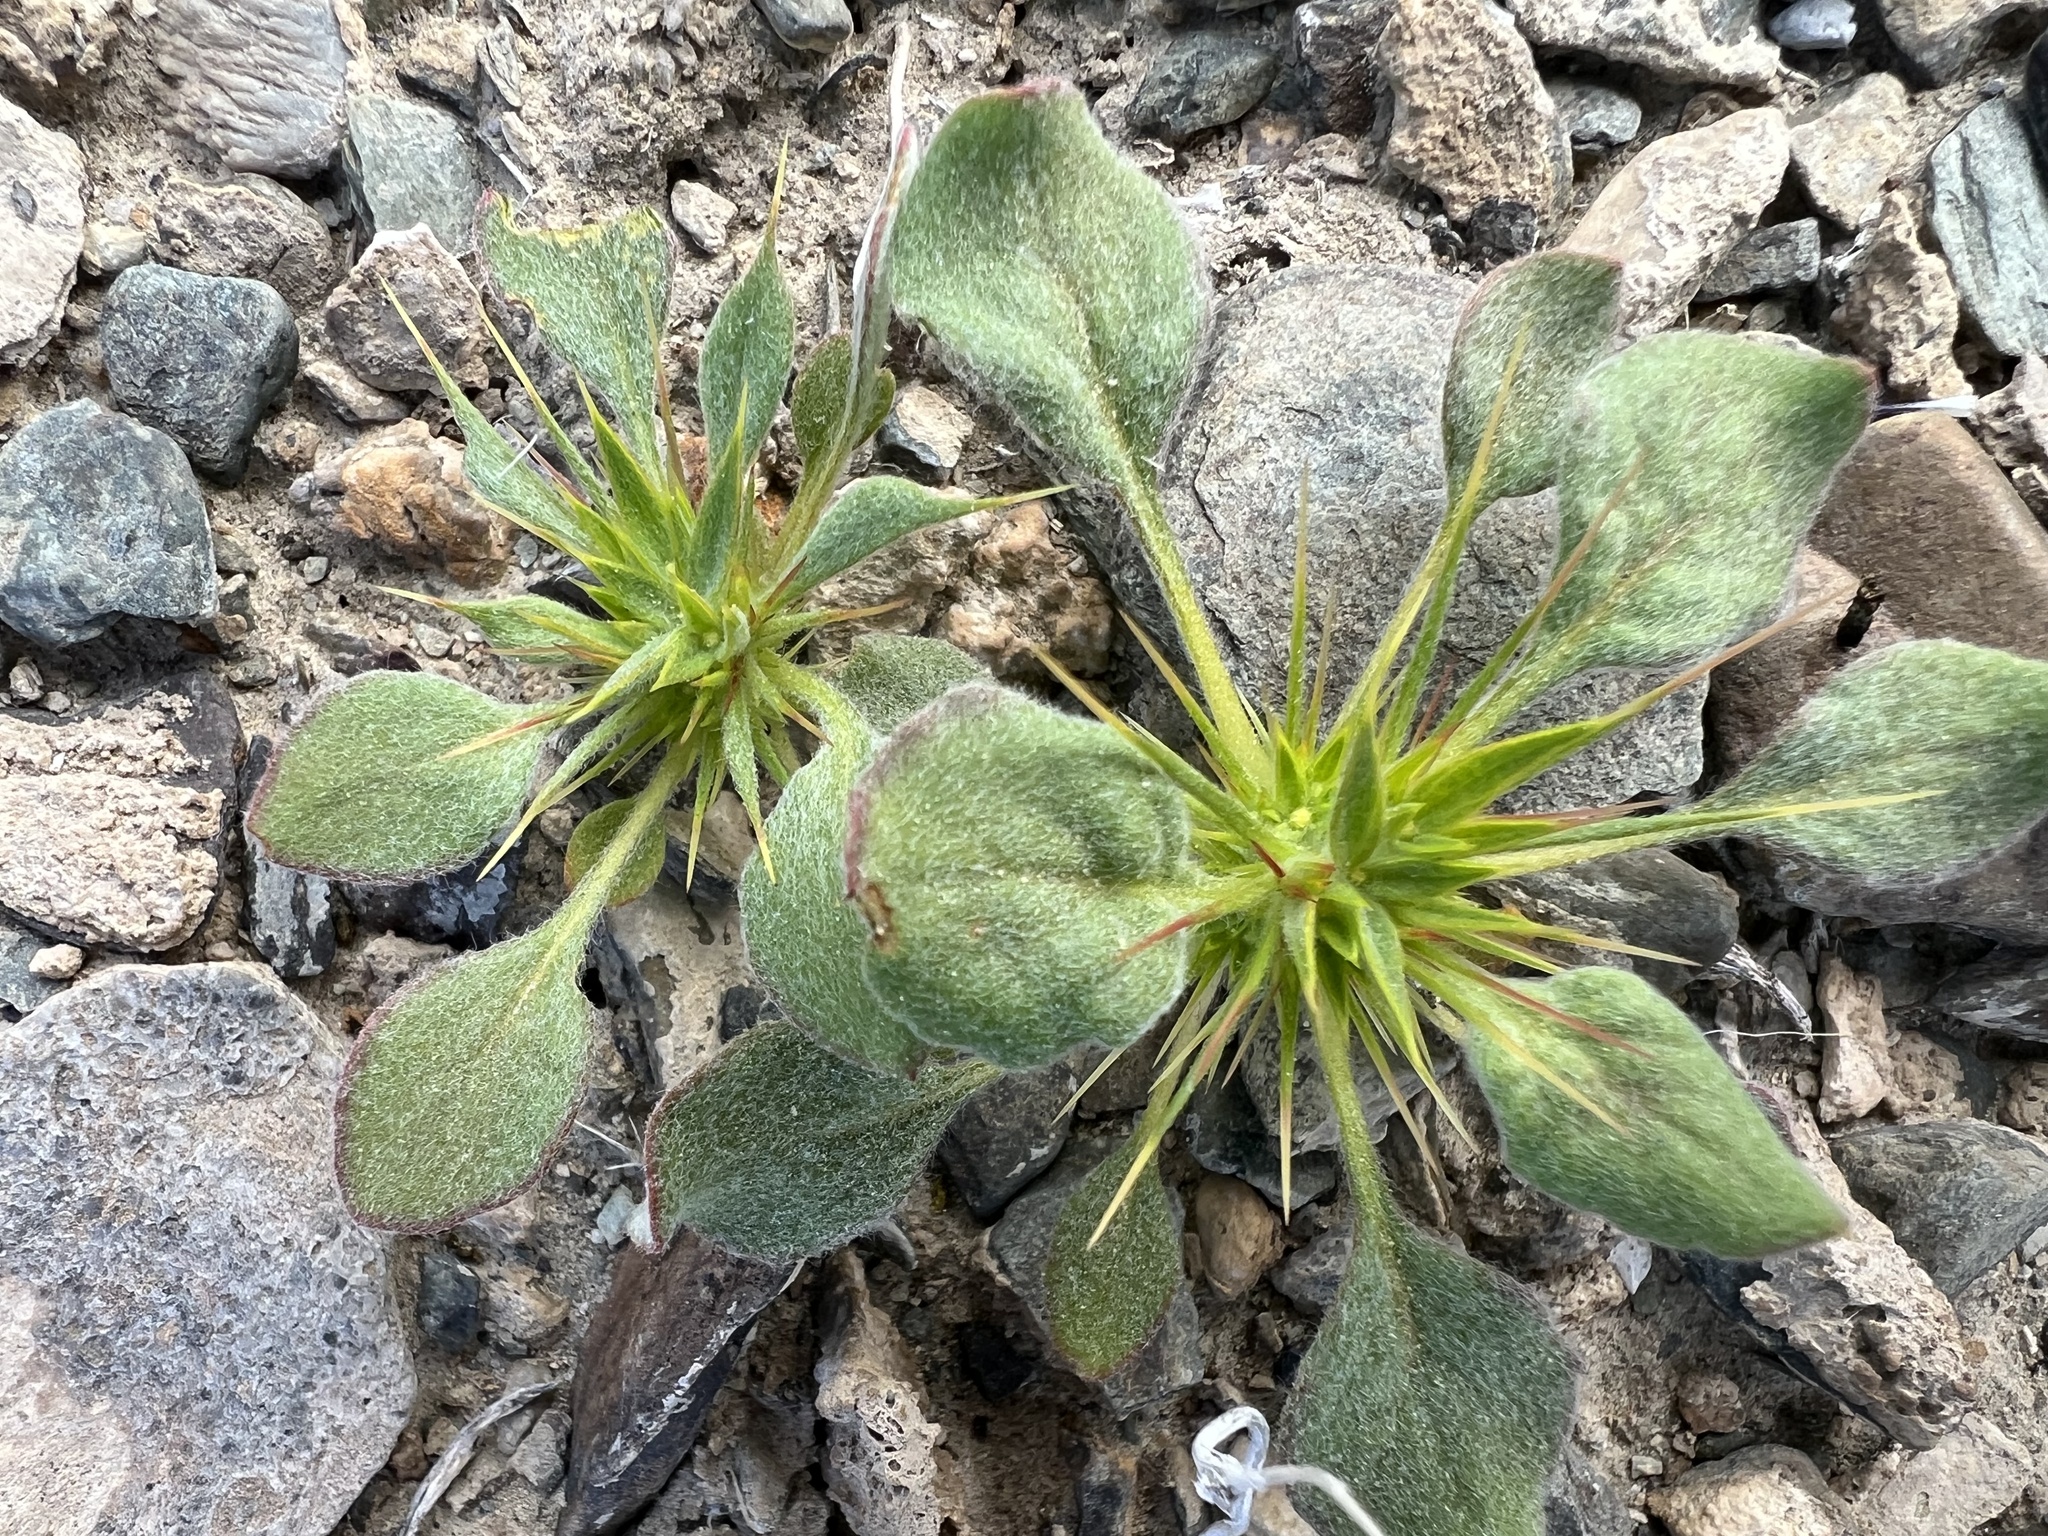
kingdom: Plantae
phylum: Tracheophyta
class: Magnoliopsida
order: Caryophyllales
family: Polygonaceae
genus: Chorizanthe
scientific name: Chorizanthe rigida
